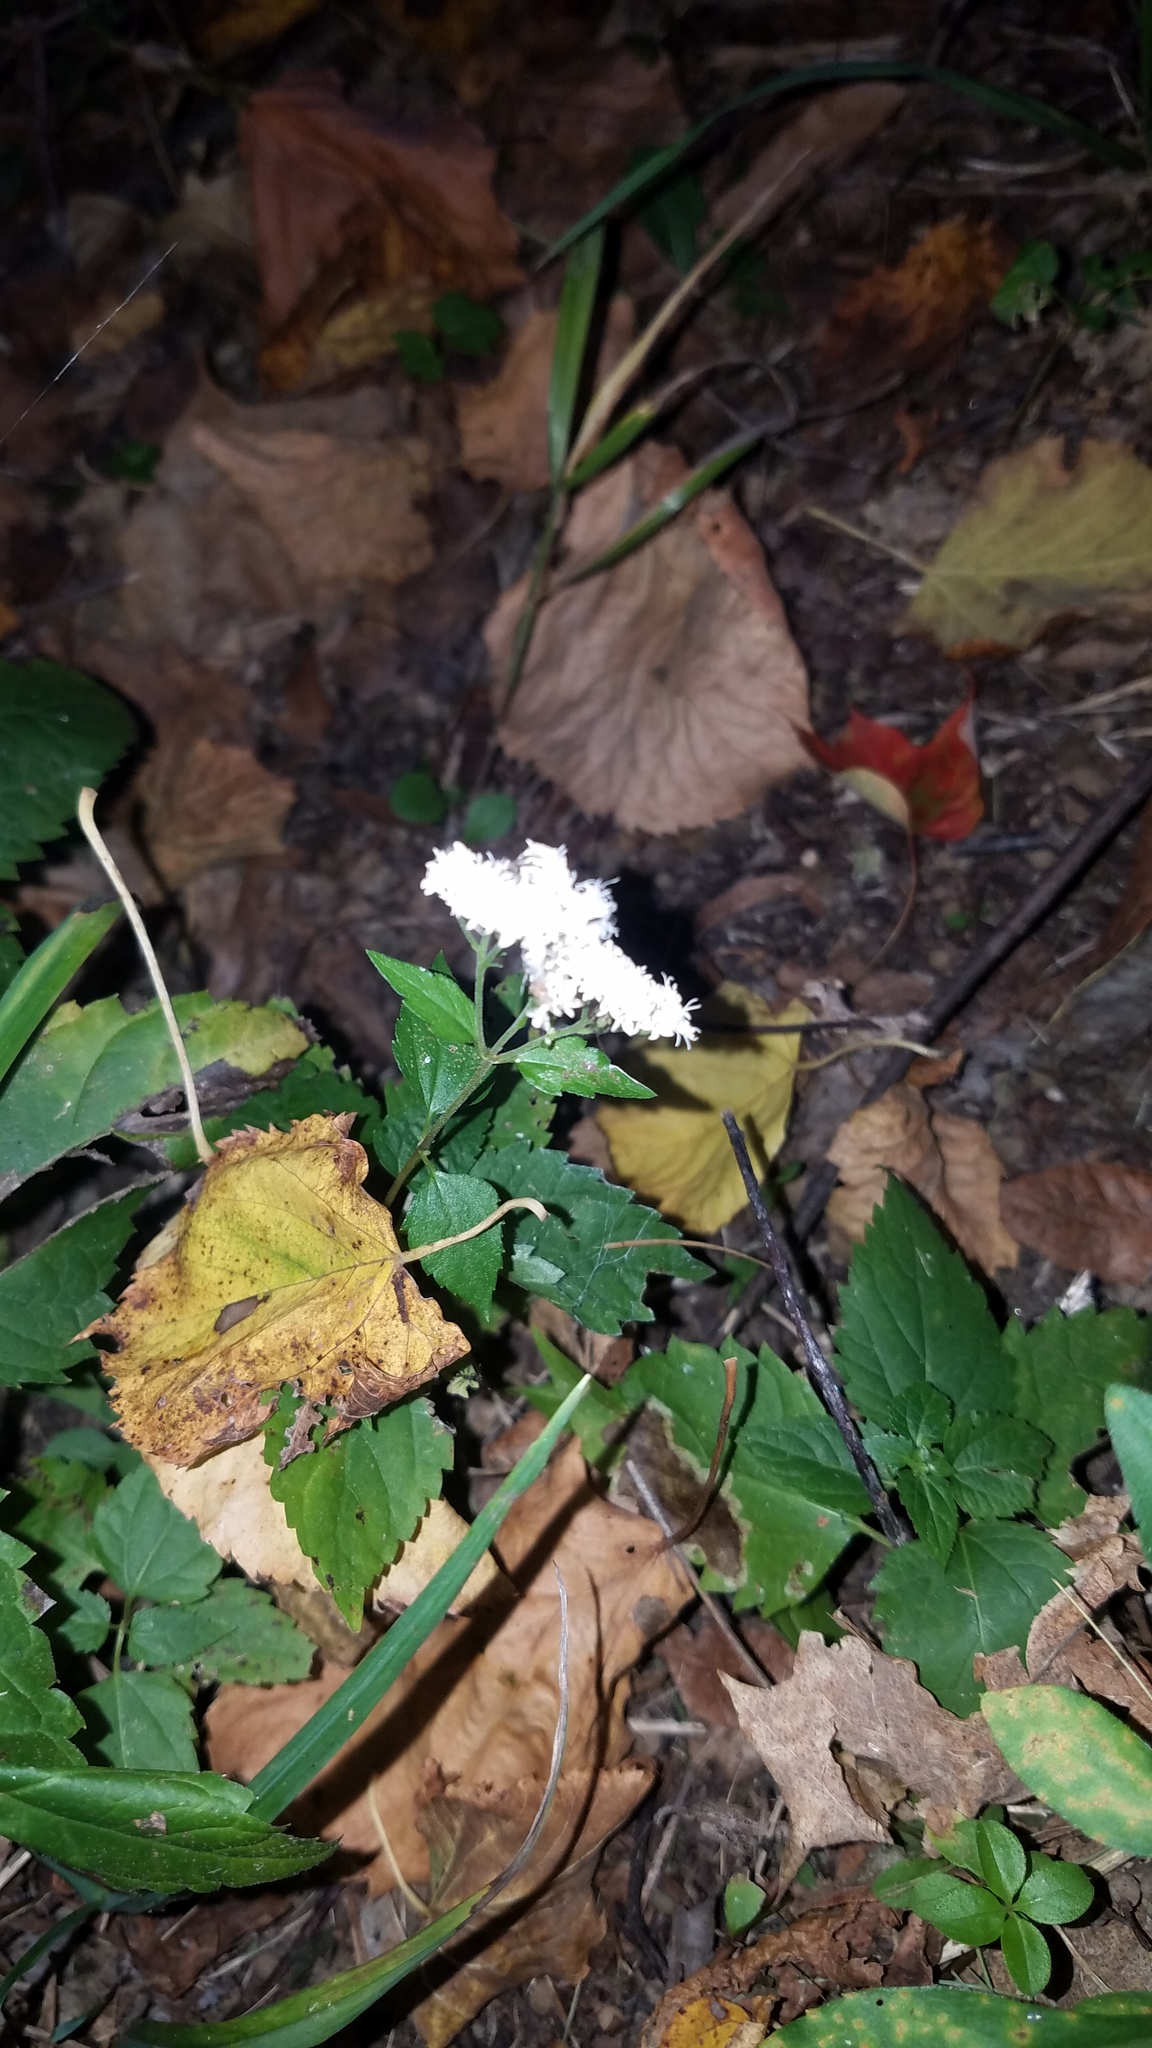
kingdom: Plantae
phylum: Tracheophyta
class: Magnoliopsida
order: Asterales
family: Asteraceae
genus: Ageratina
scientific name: Ageratina altissima
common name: White snakeroot
